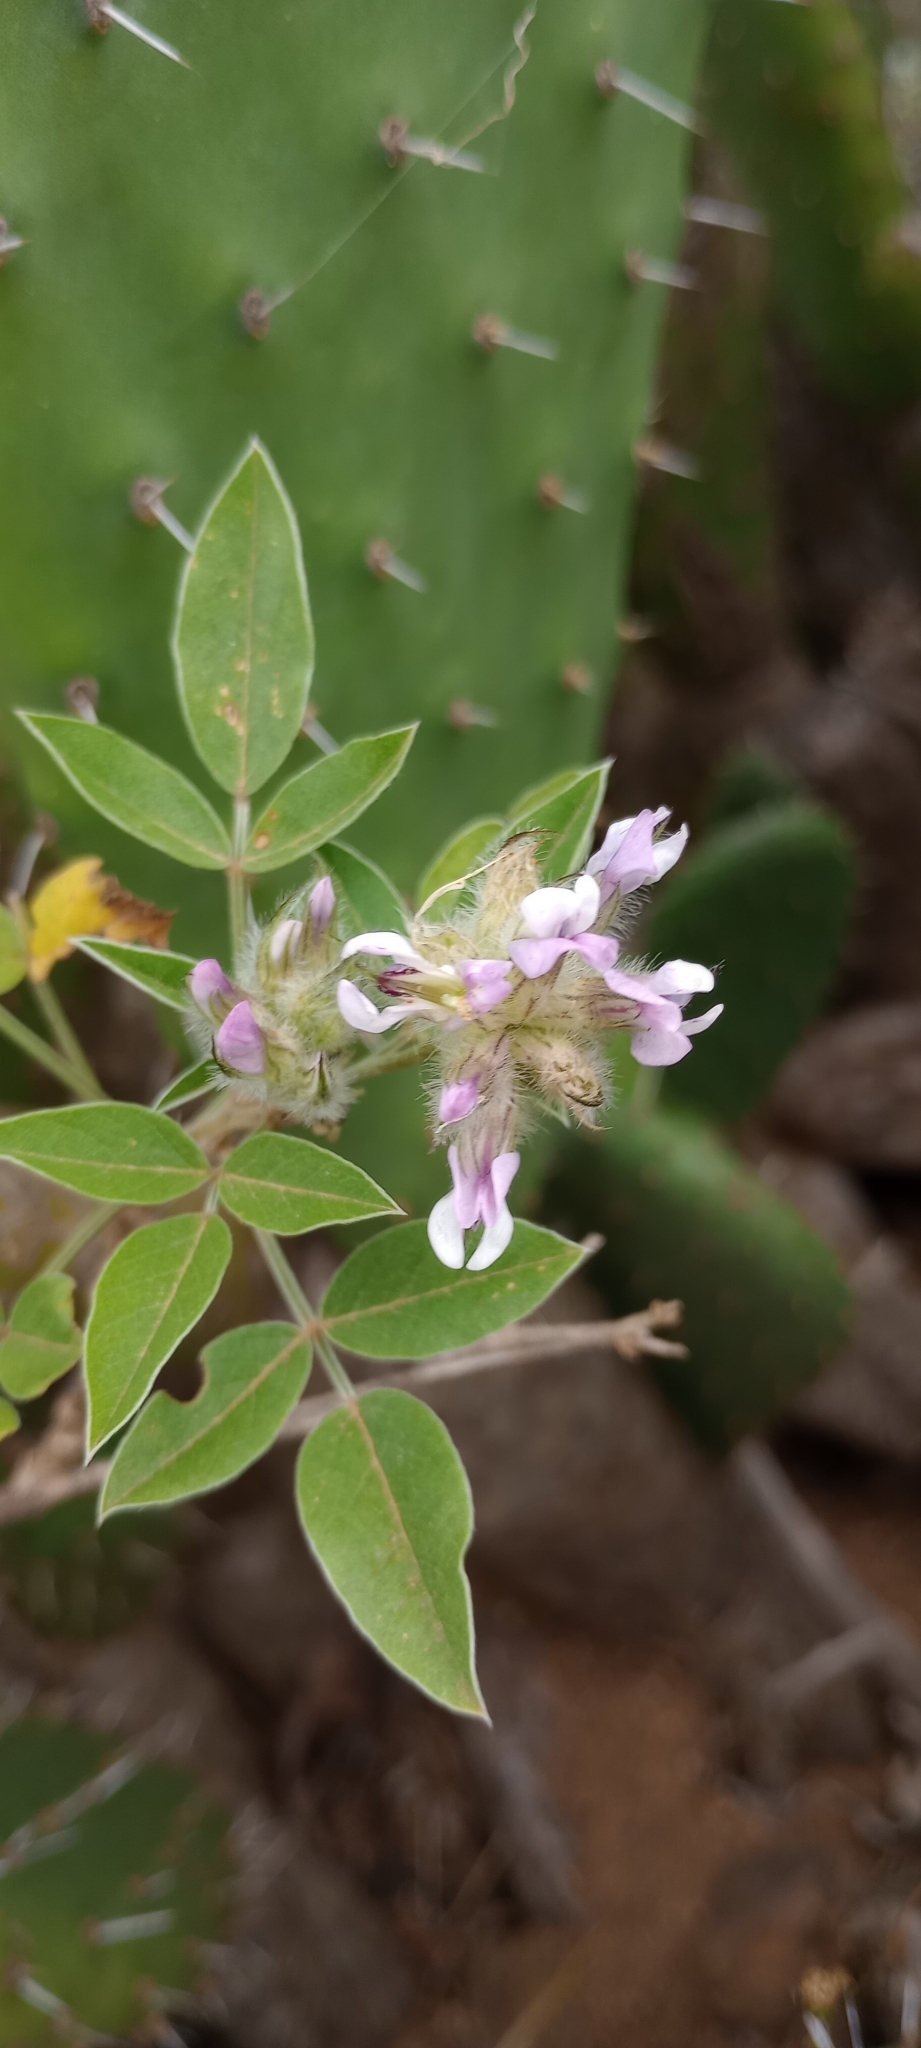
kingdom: Plantae
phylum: Tracheophyta
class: Magnoliopsida
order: Fabales
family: Fabaceae
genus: Bituminaria
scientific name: Bituminaria bituminosa
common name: Arabian pea
